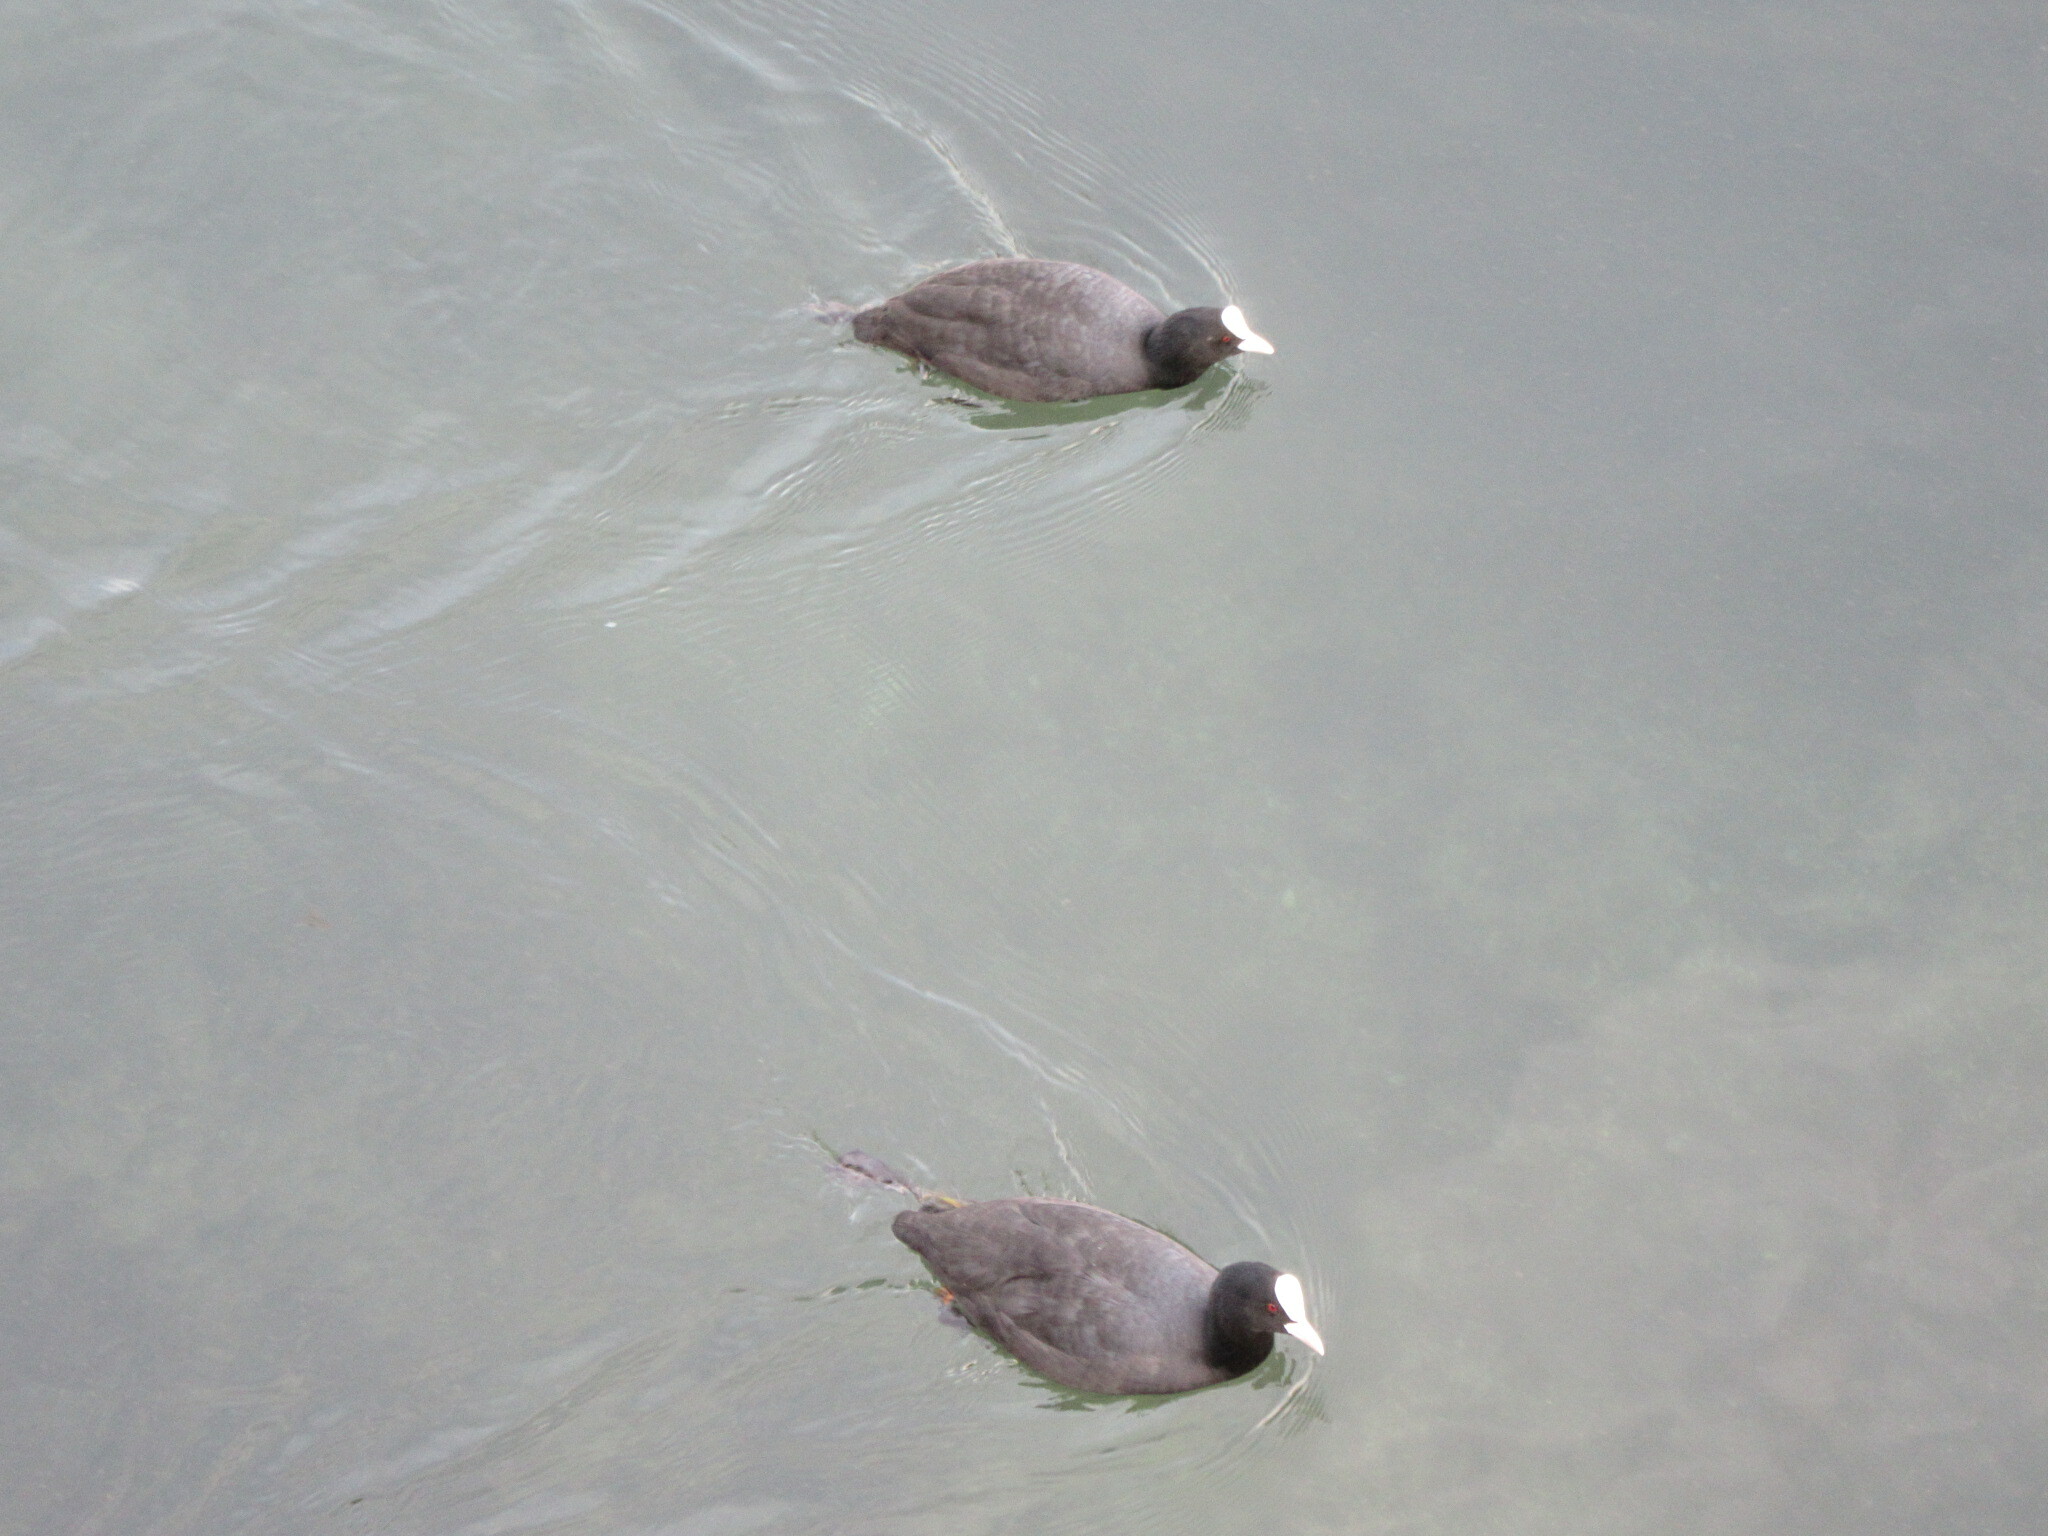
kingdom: Animalia
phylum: Chordata
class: Aves
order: Gruiformes
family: Rallidae
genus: Fulica
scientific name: Fulica atra
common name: Eurasian coot
